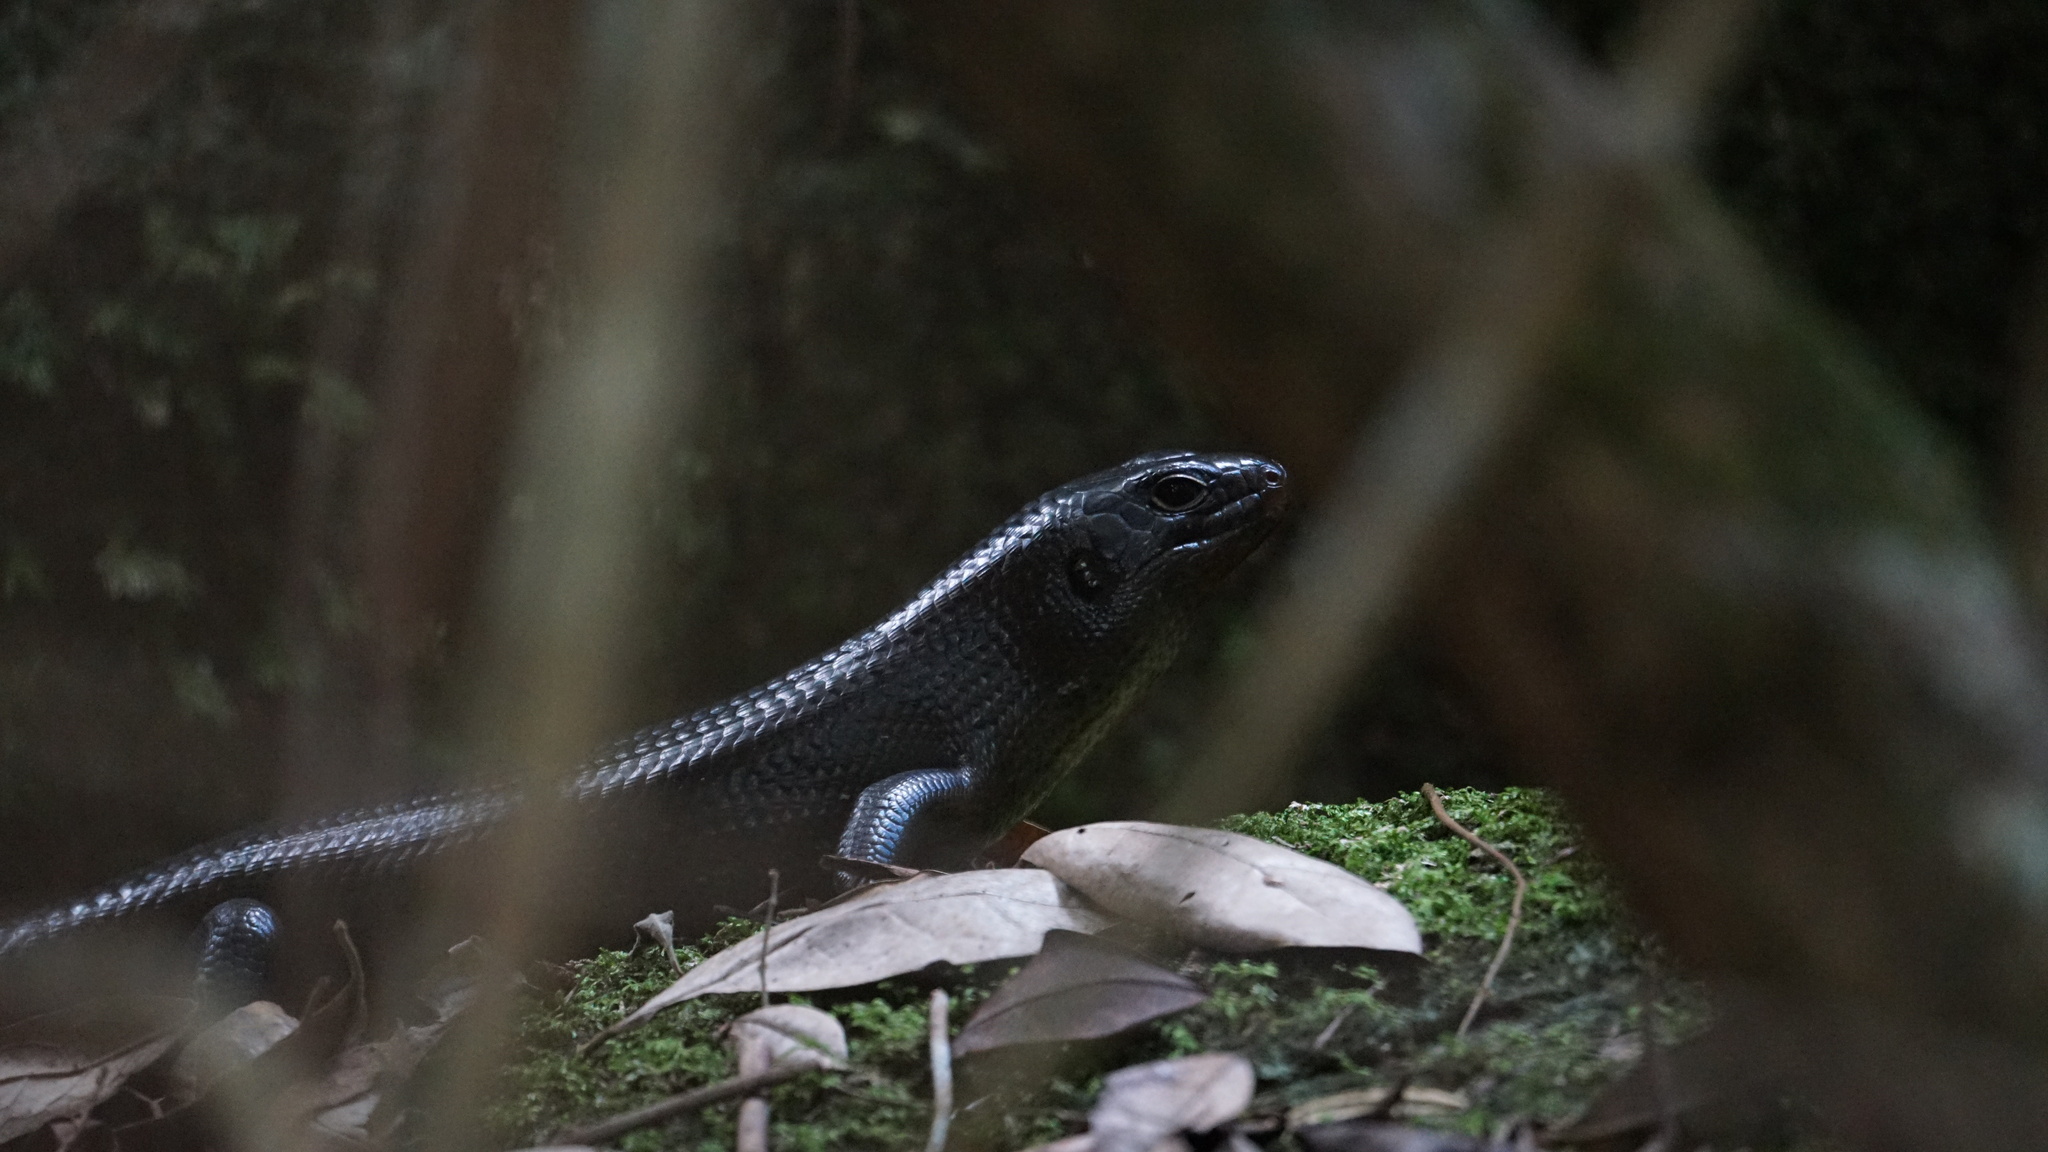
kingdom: Animalia
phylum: Chordata
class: Squamata
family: Scincidae
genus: Bellatorias
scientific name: Bellatorias major
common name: Land mullet
